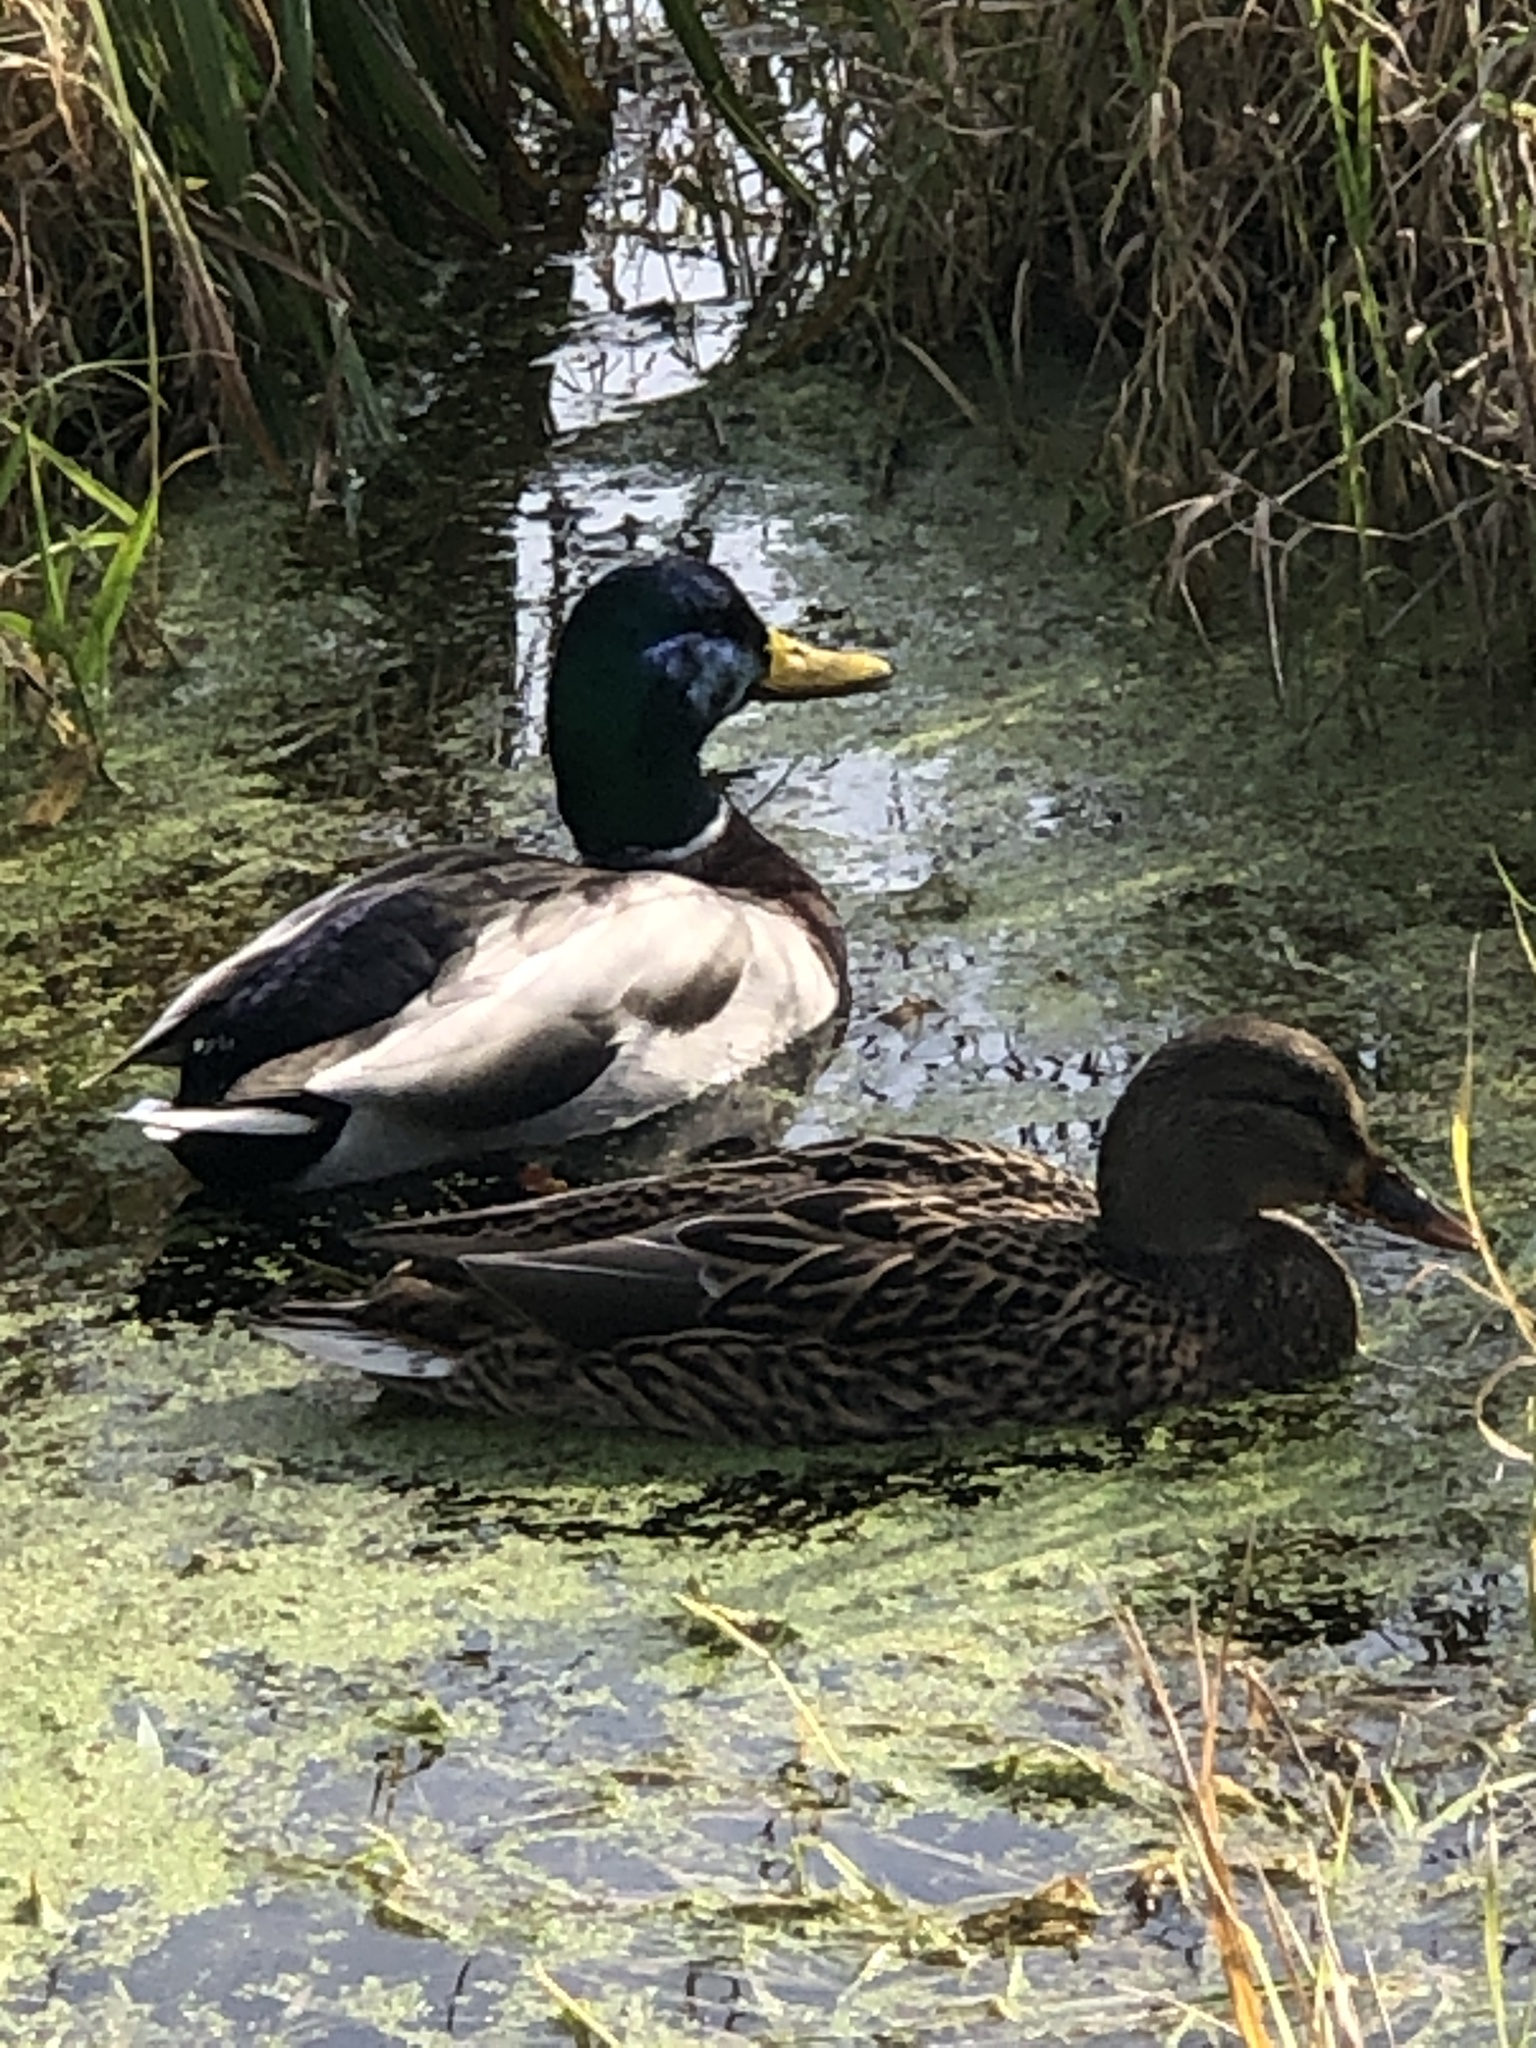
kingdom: Animalia
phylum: Chordata
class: Aves
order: Anseriformes
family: Anatidae
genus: Anas
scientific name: Anas platyrhynchos
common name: Mallard
